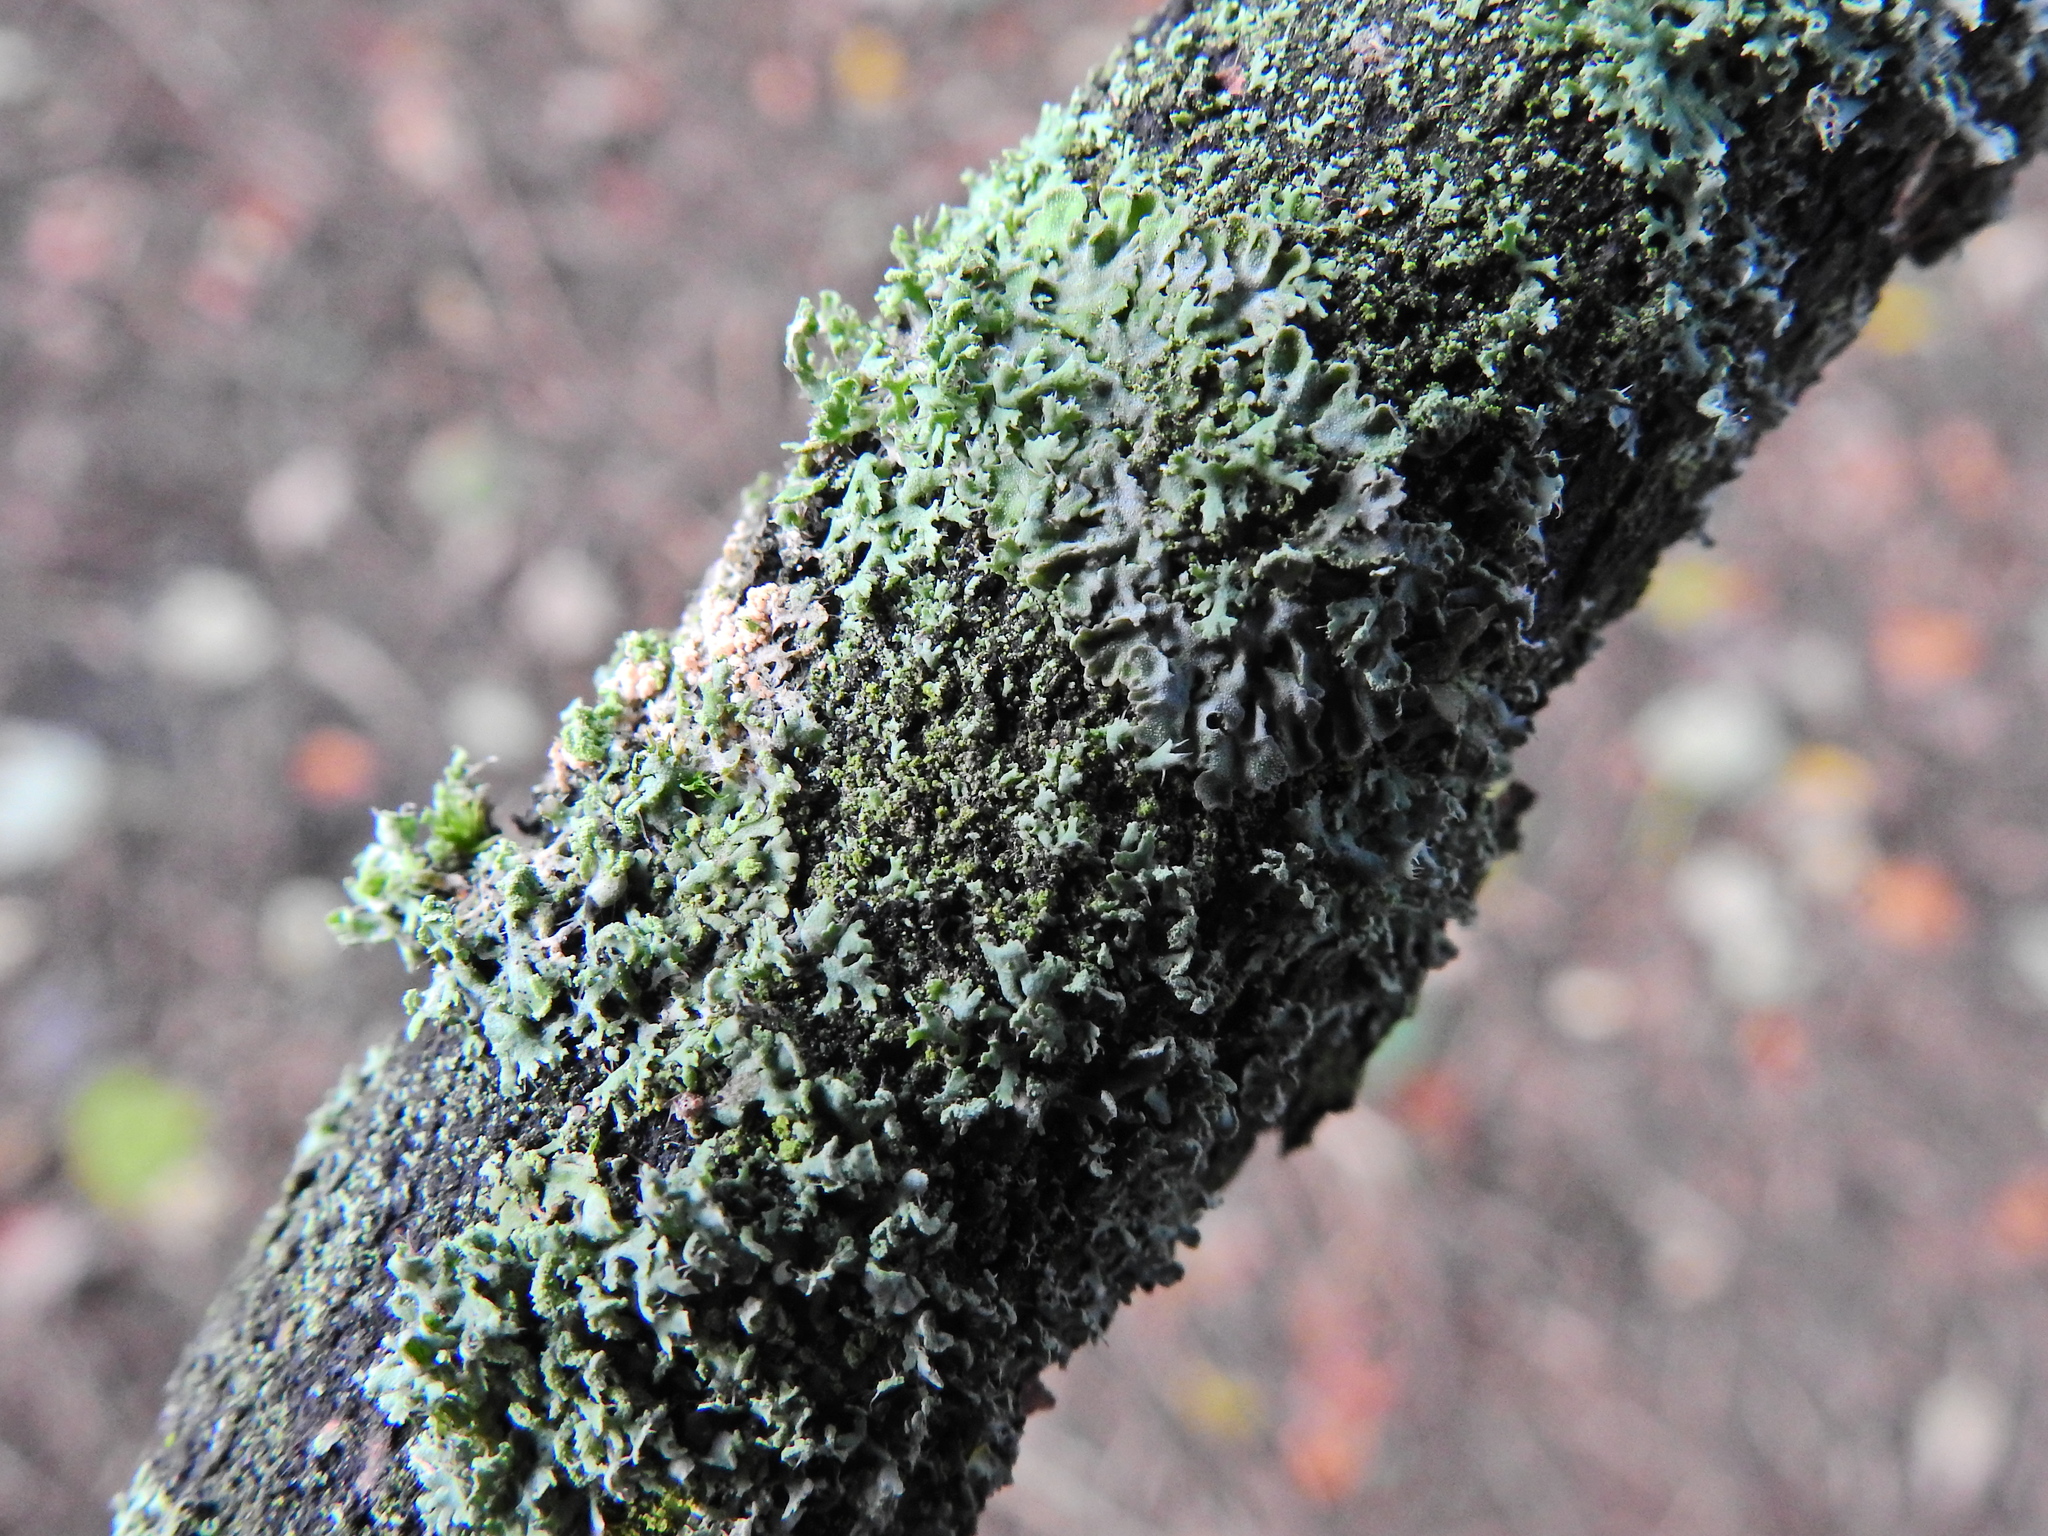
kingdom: Fungi
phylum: Ascomycota
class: Lecanoromycetes
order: Caliciales
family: Physciaceae
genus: Physcia
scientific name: Physcia tenella
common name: Fringed rosette lichen
